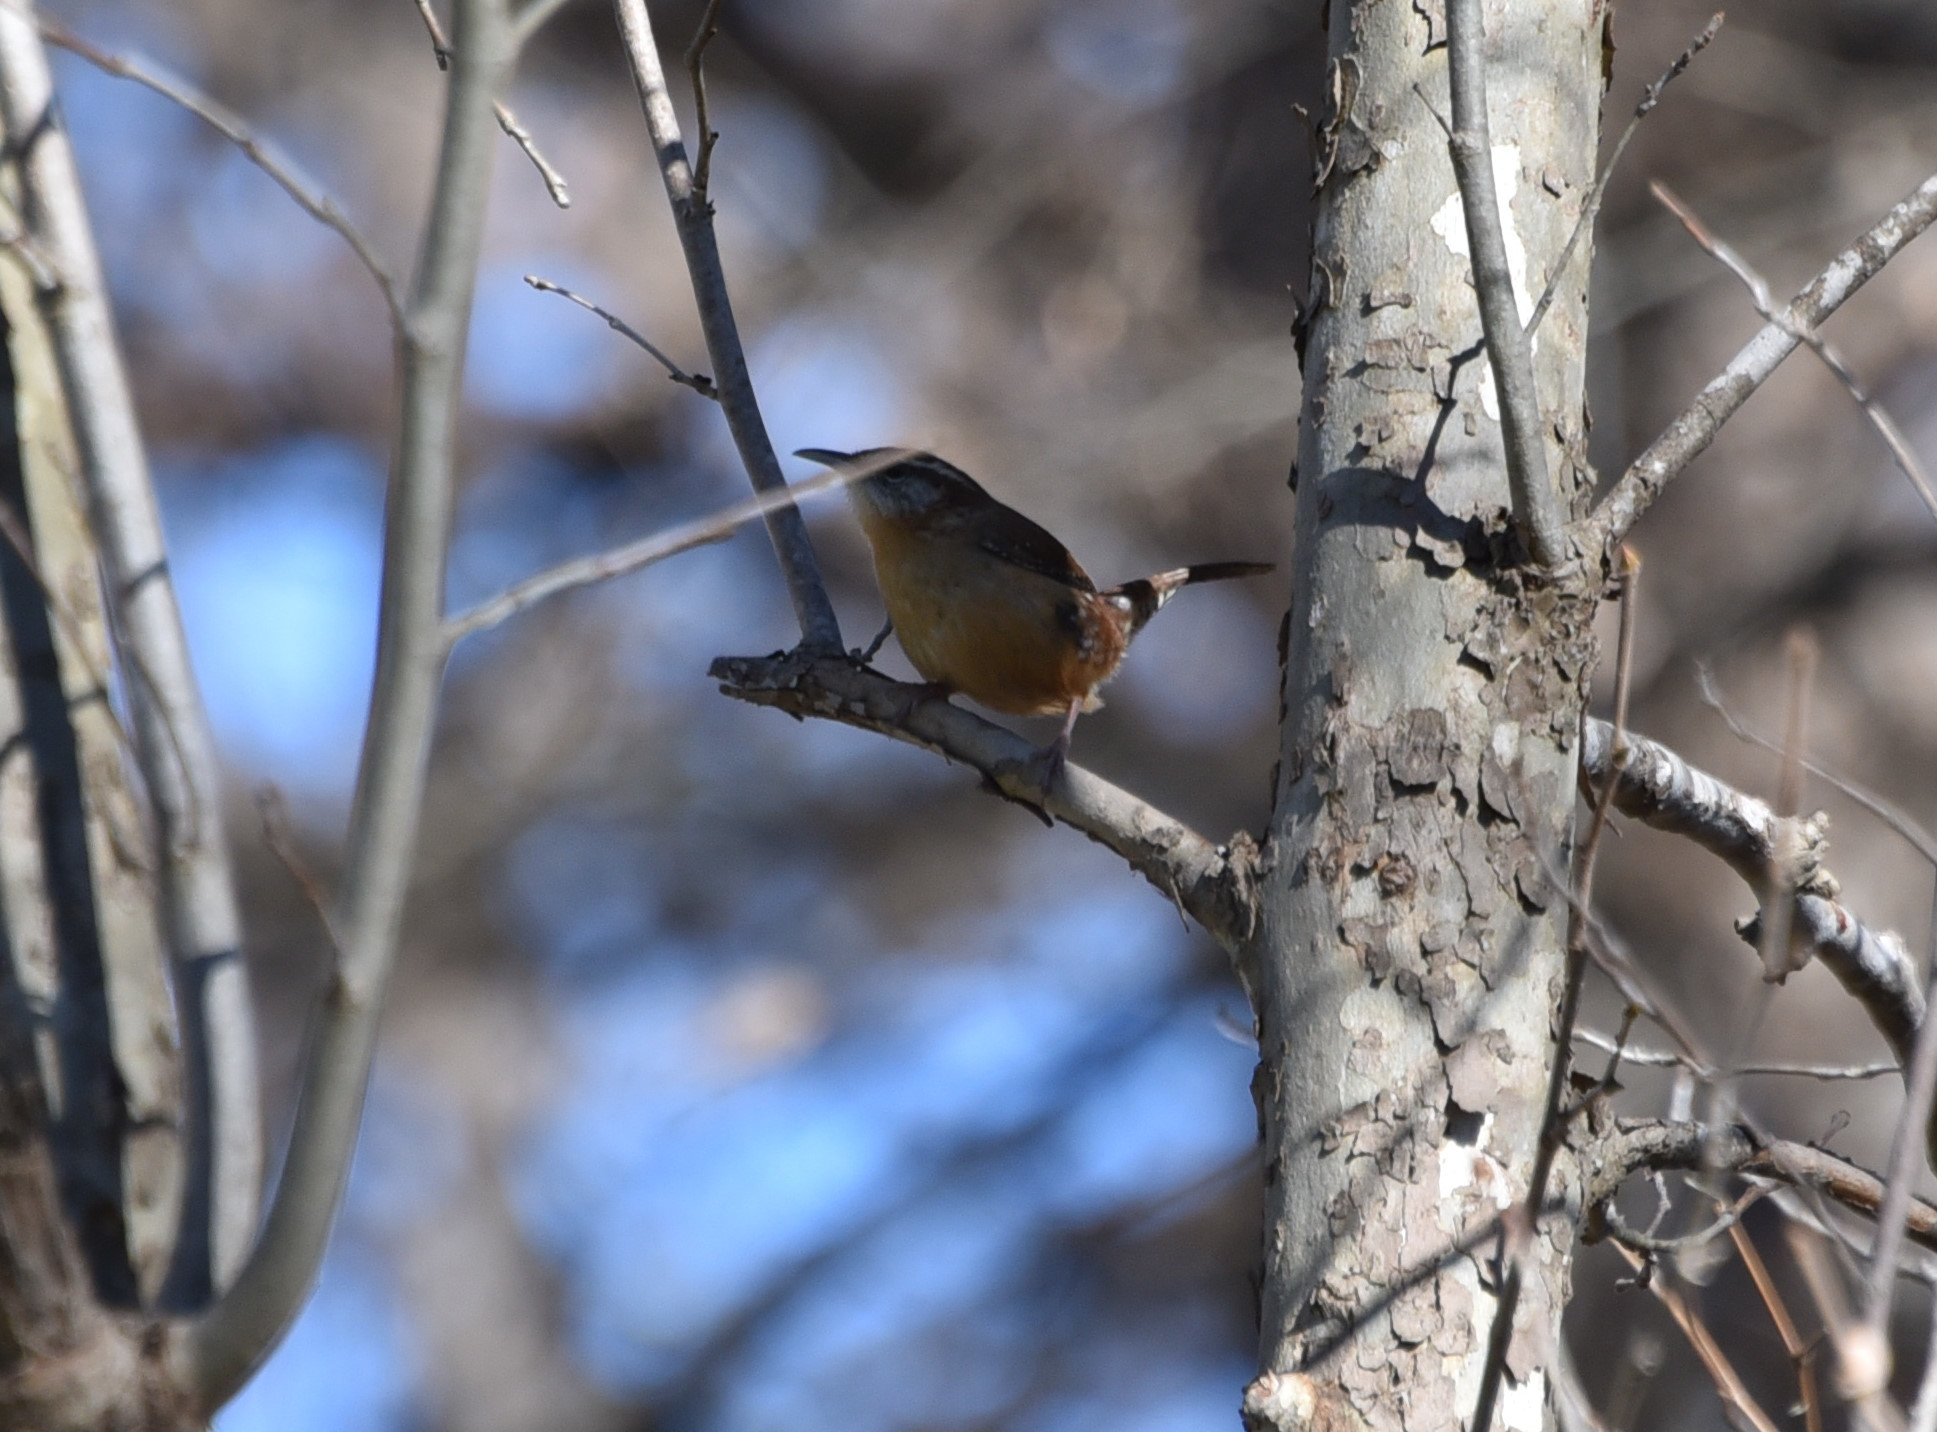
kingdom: Animalia
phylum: Chordata
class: Aves
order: Passeriformes
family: Troglodytidae
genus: Thryothorus
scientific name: Thryothorus ludovicianus
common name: Carolina wren
